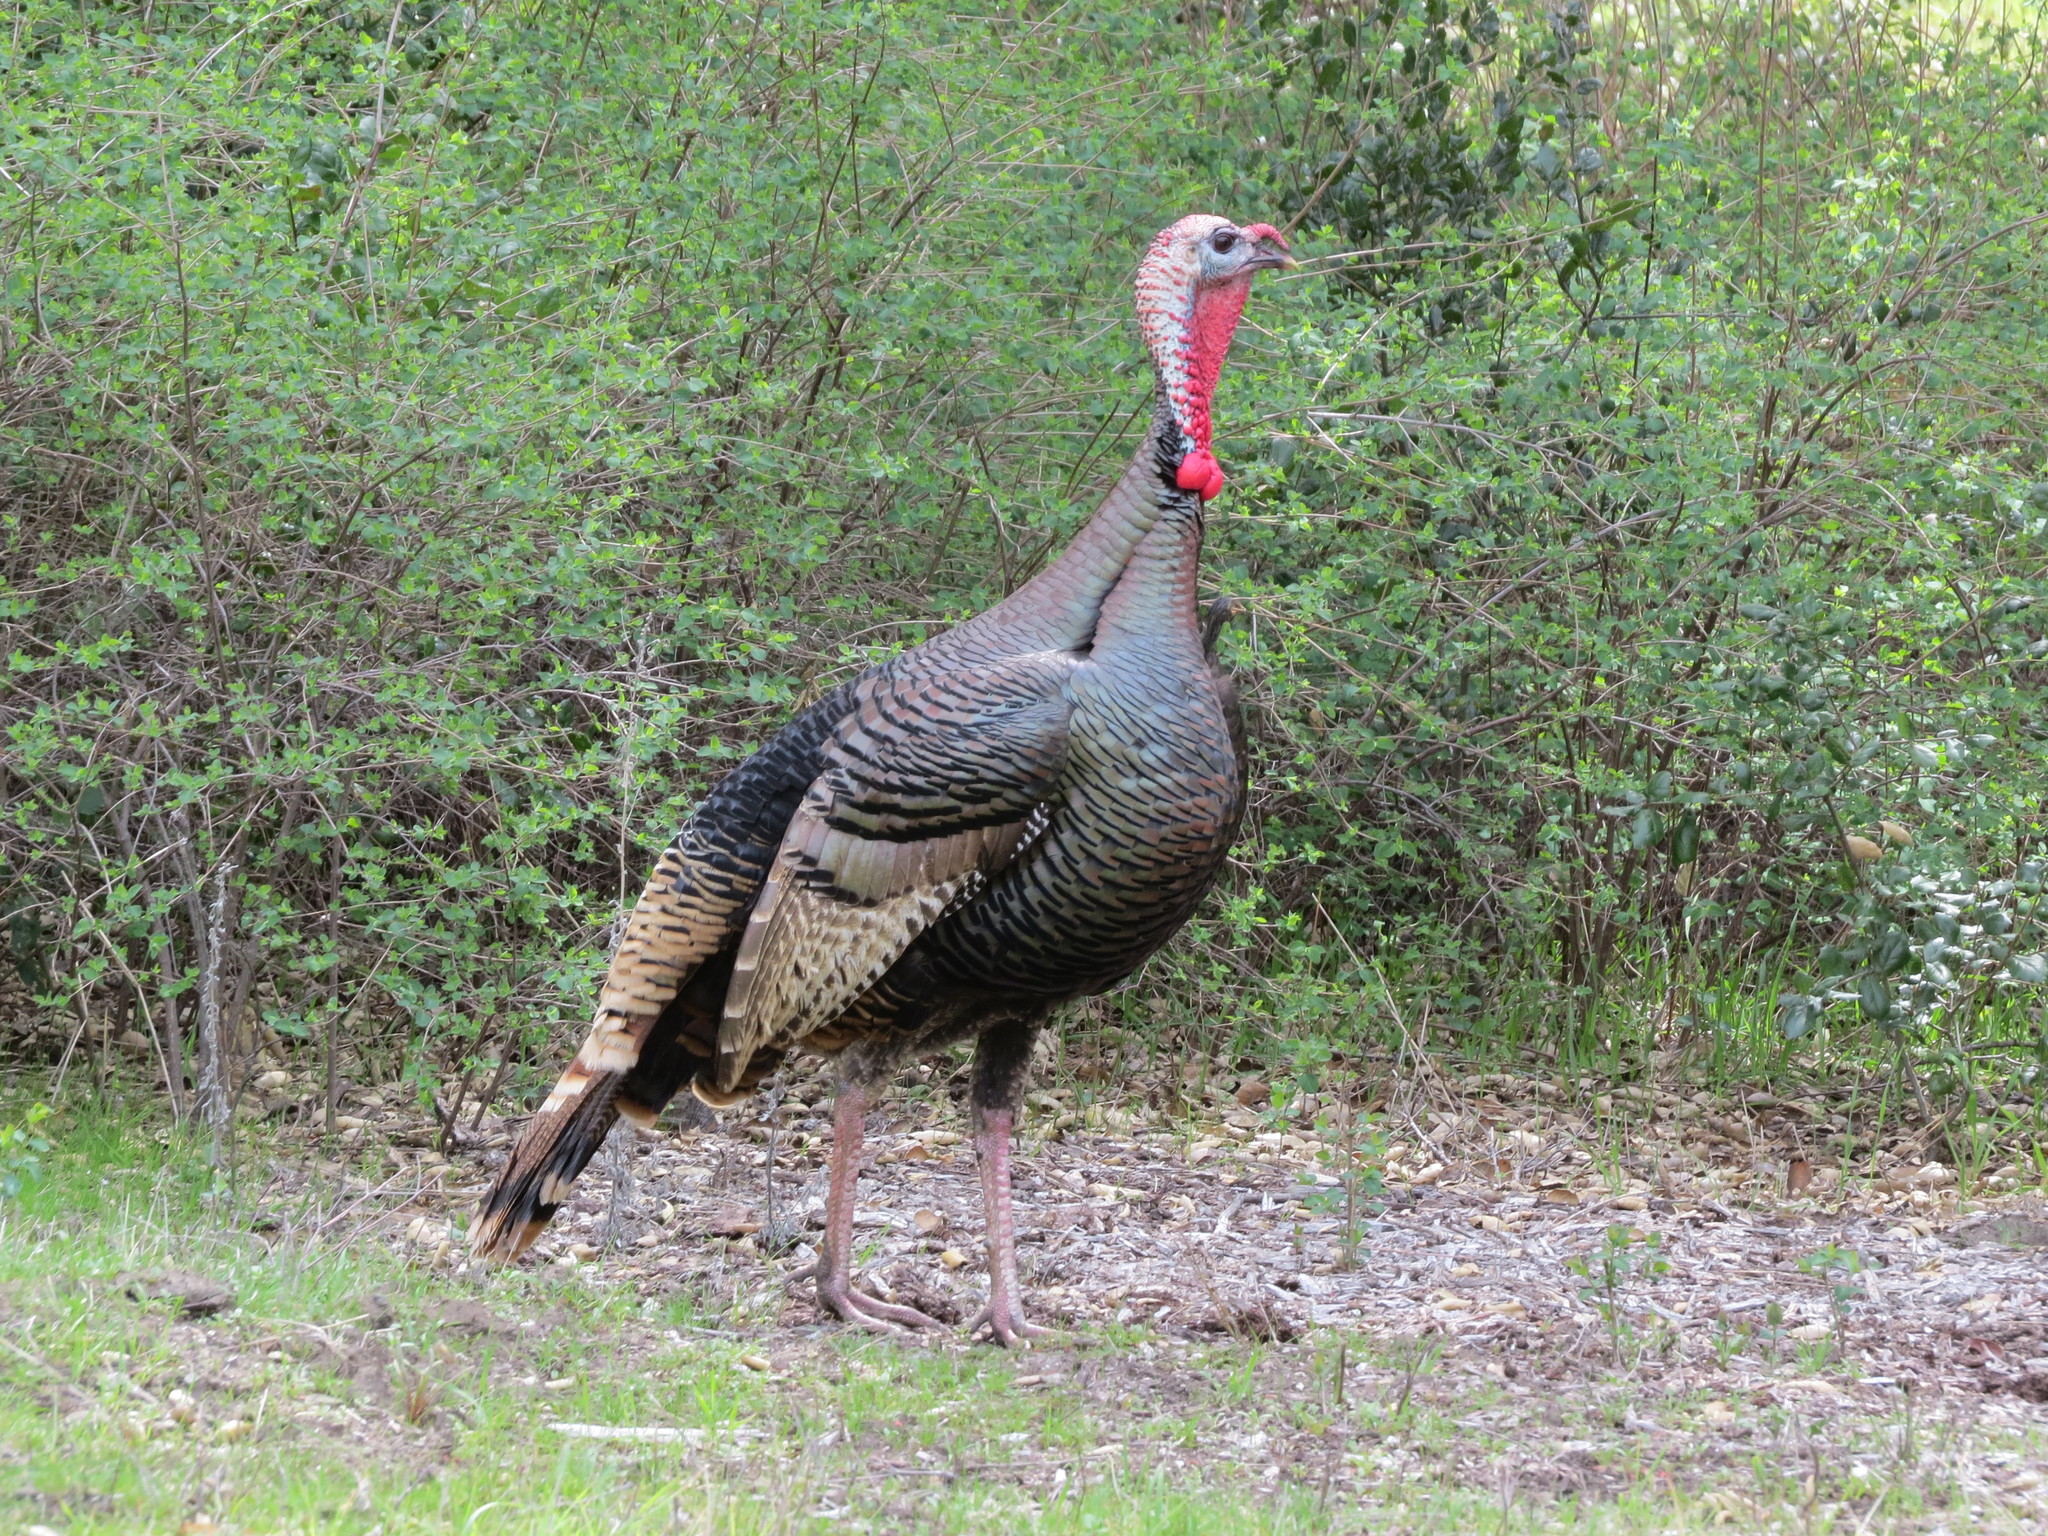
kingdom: Animalia
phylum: Chordata
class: Aves
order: Galliformes
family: Phasianidae
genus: Meleagris
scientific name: Meleagris gallopavo
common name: Wild turkey
